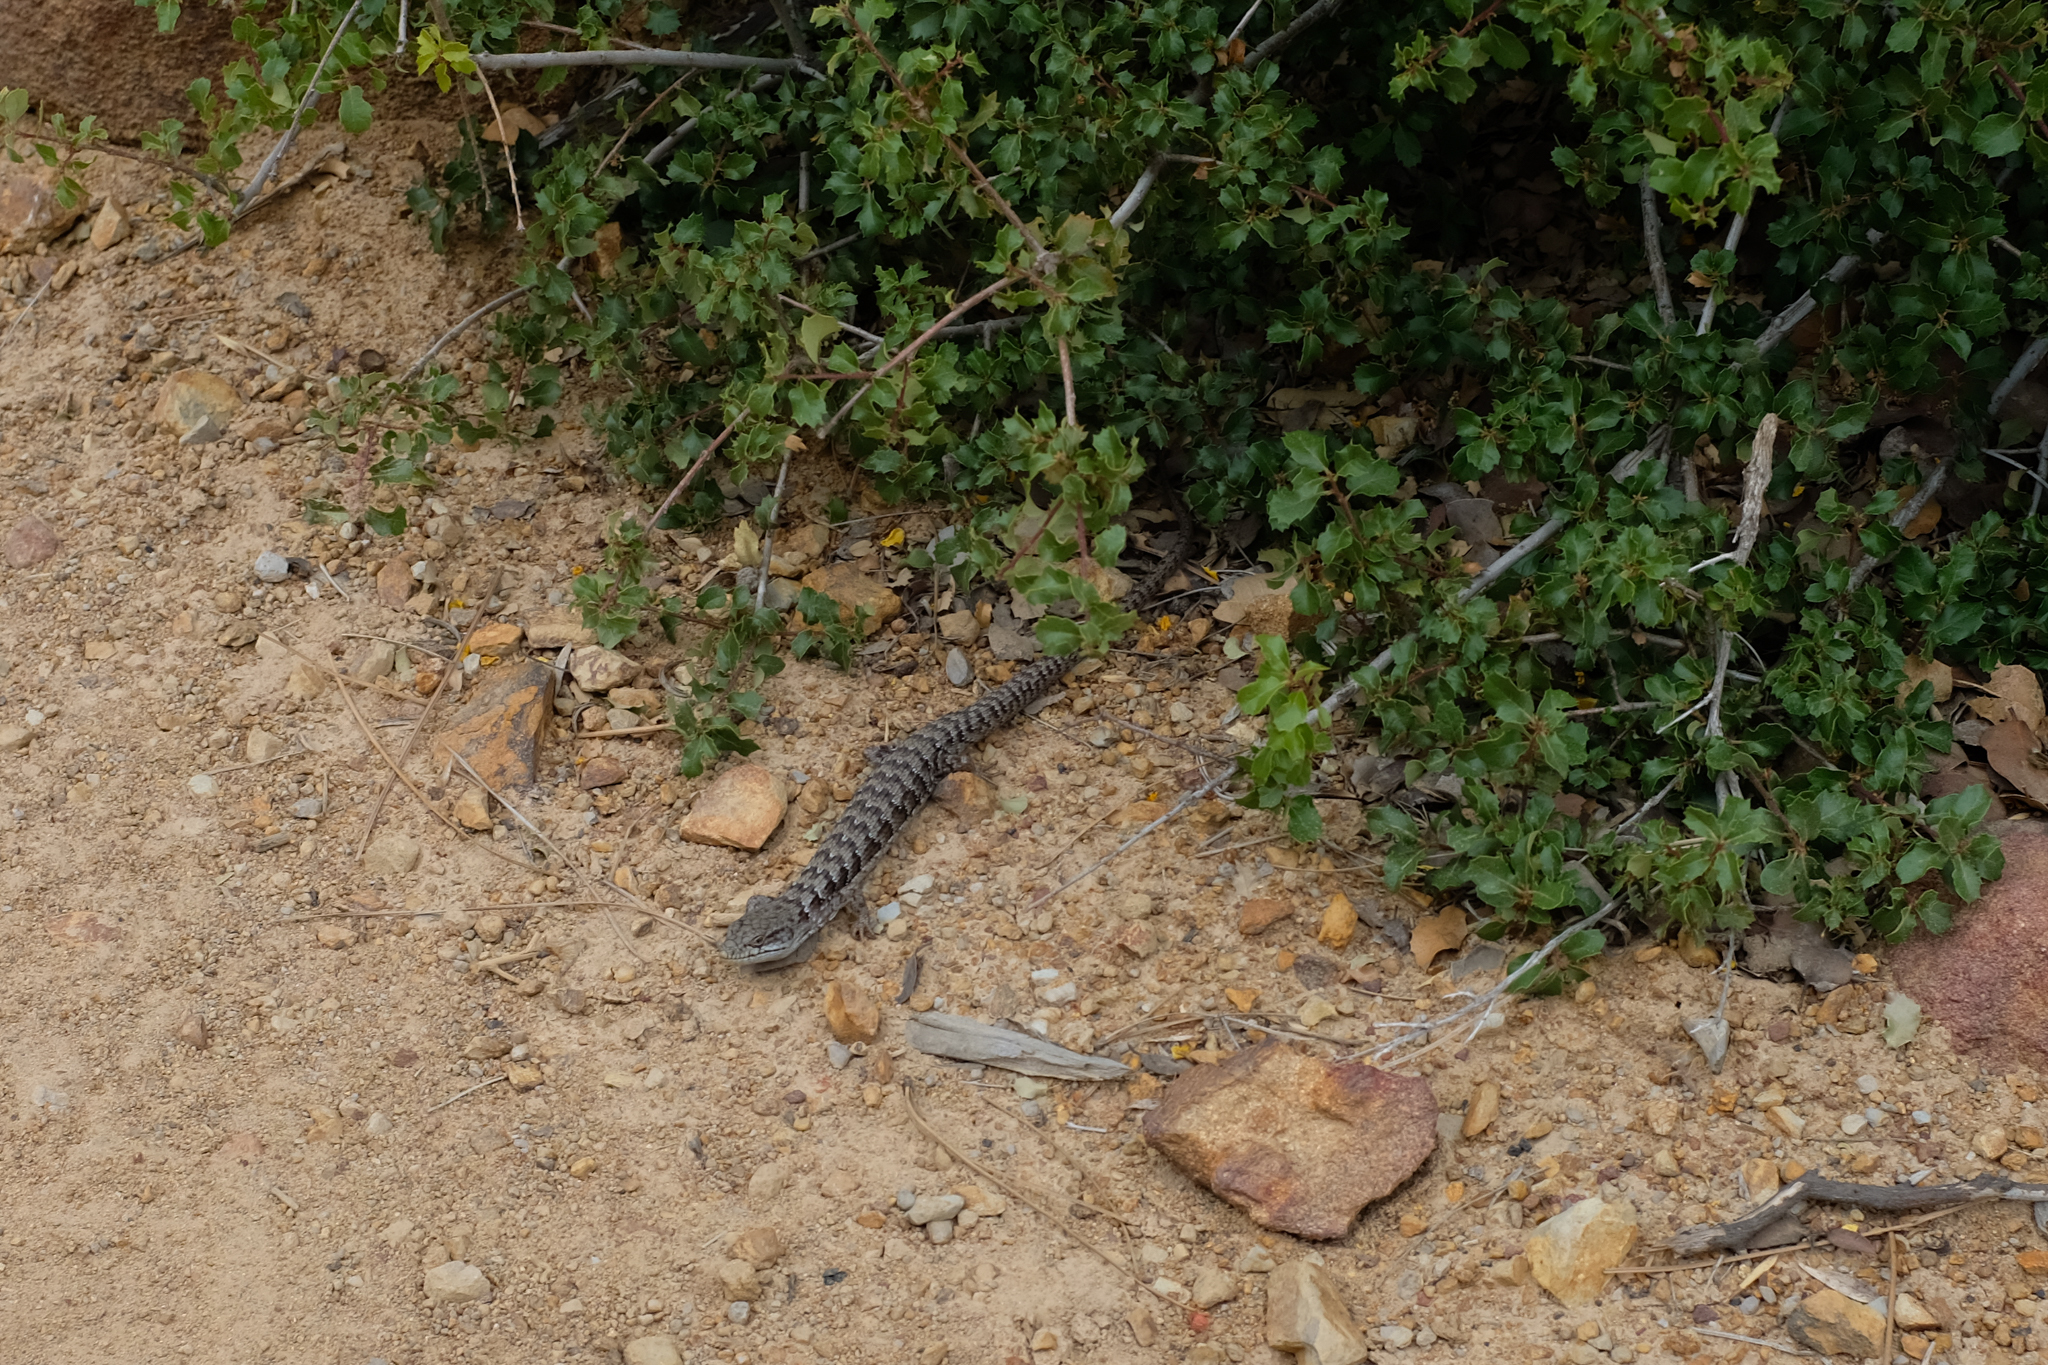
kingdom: Animalia
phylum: Chordata
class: Squamata
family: Anguidae
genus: Elgaria
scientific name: Elgaria multicarinata
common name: Southern alligator lizard
